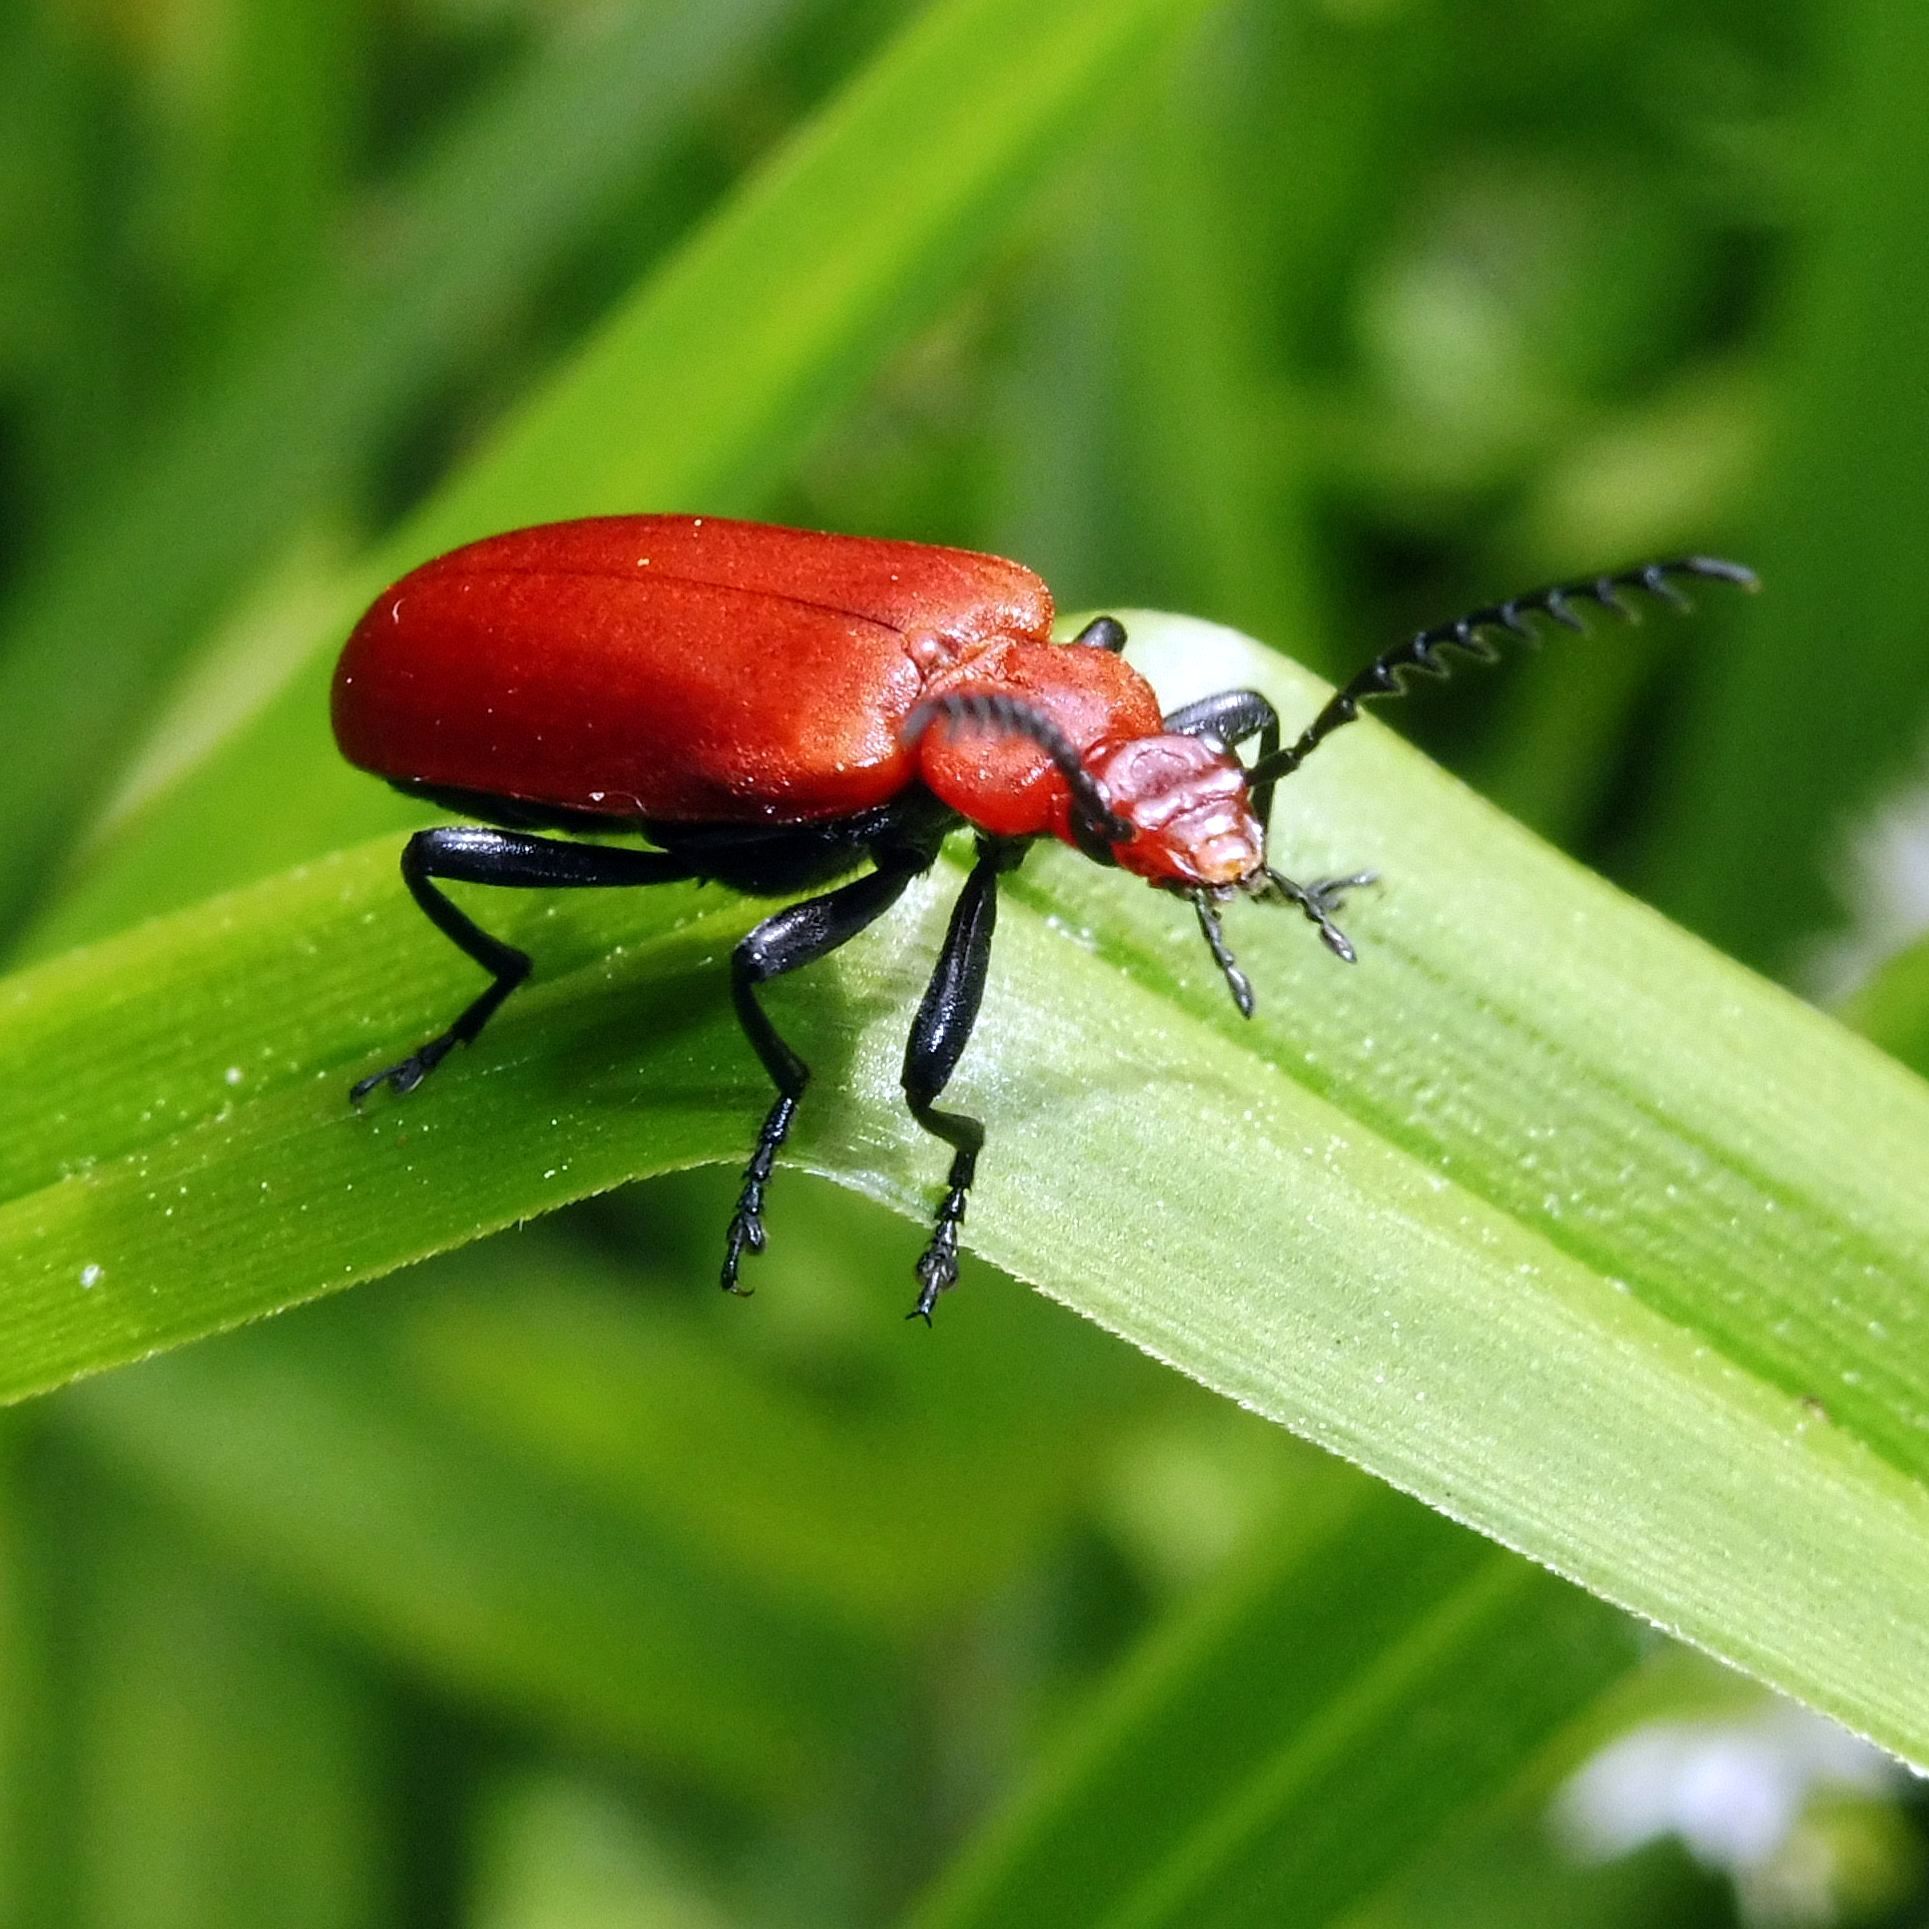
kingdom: Animalia
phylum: Arthropoda
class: Insecta
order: Coleoptera
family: Pyrochroidae
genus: Pyrochroa
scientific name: Pyrochroa serraticornis
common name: Red-headed cardinal beetle
